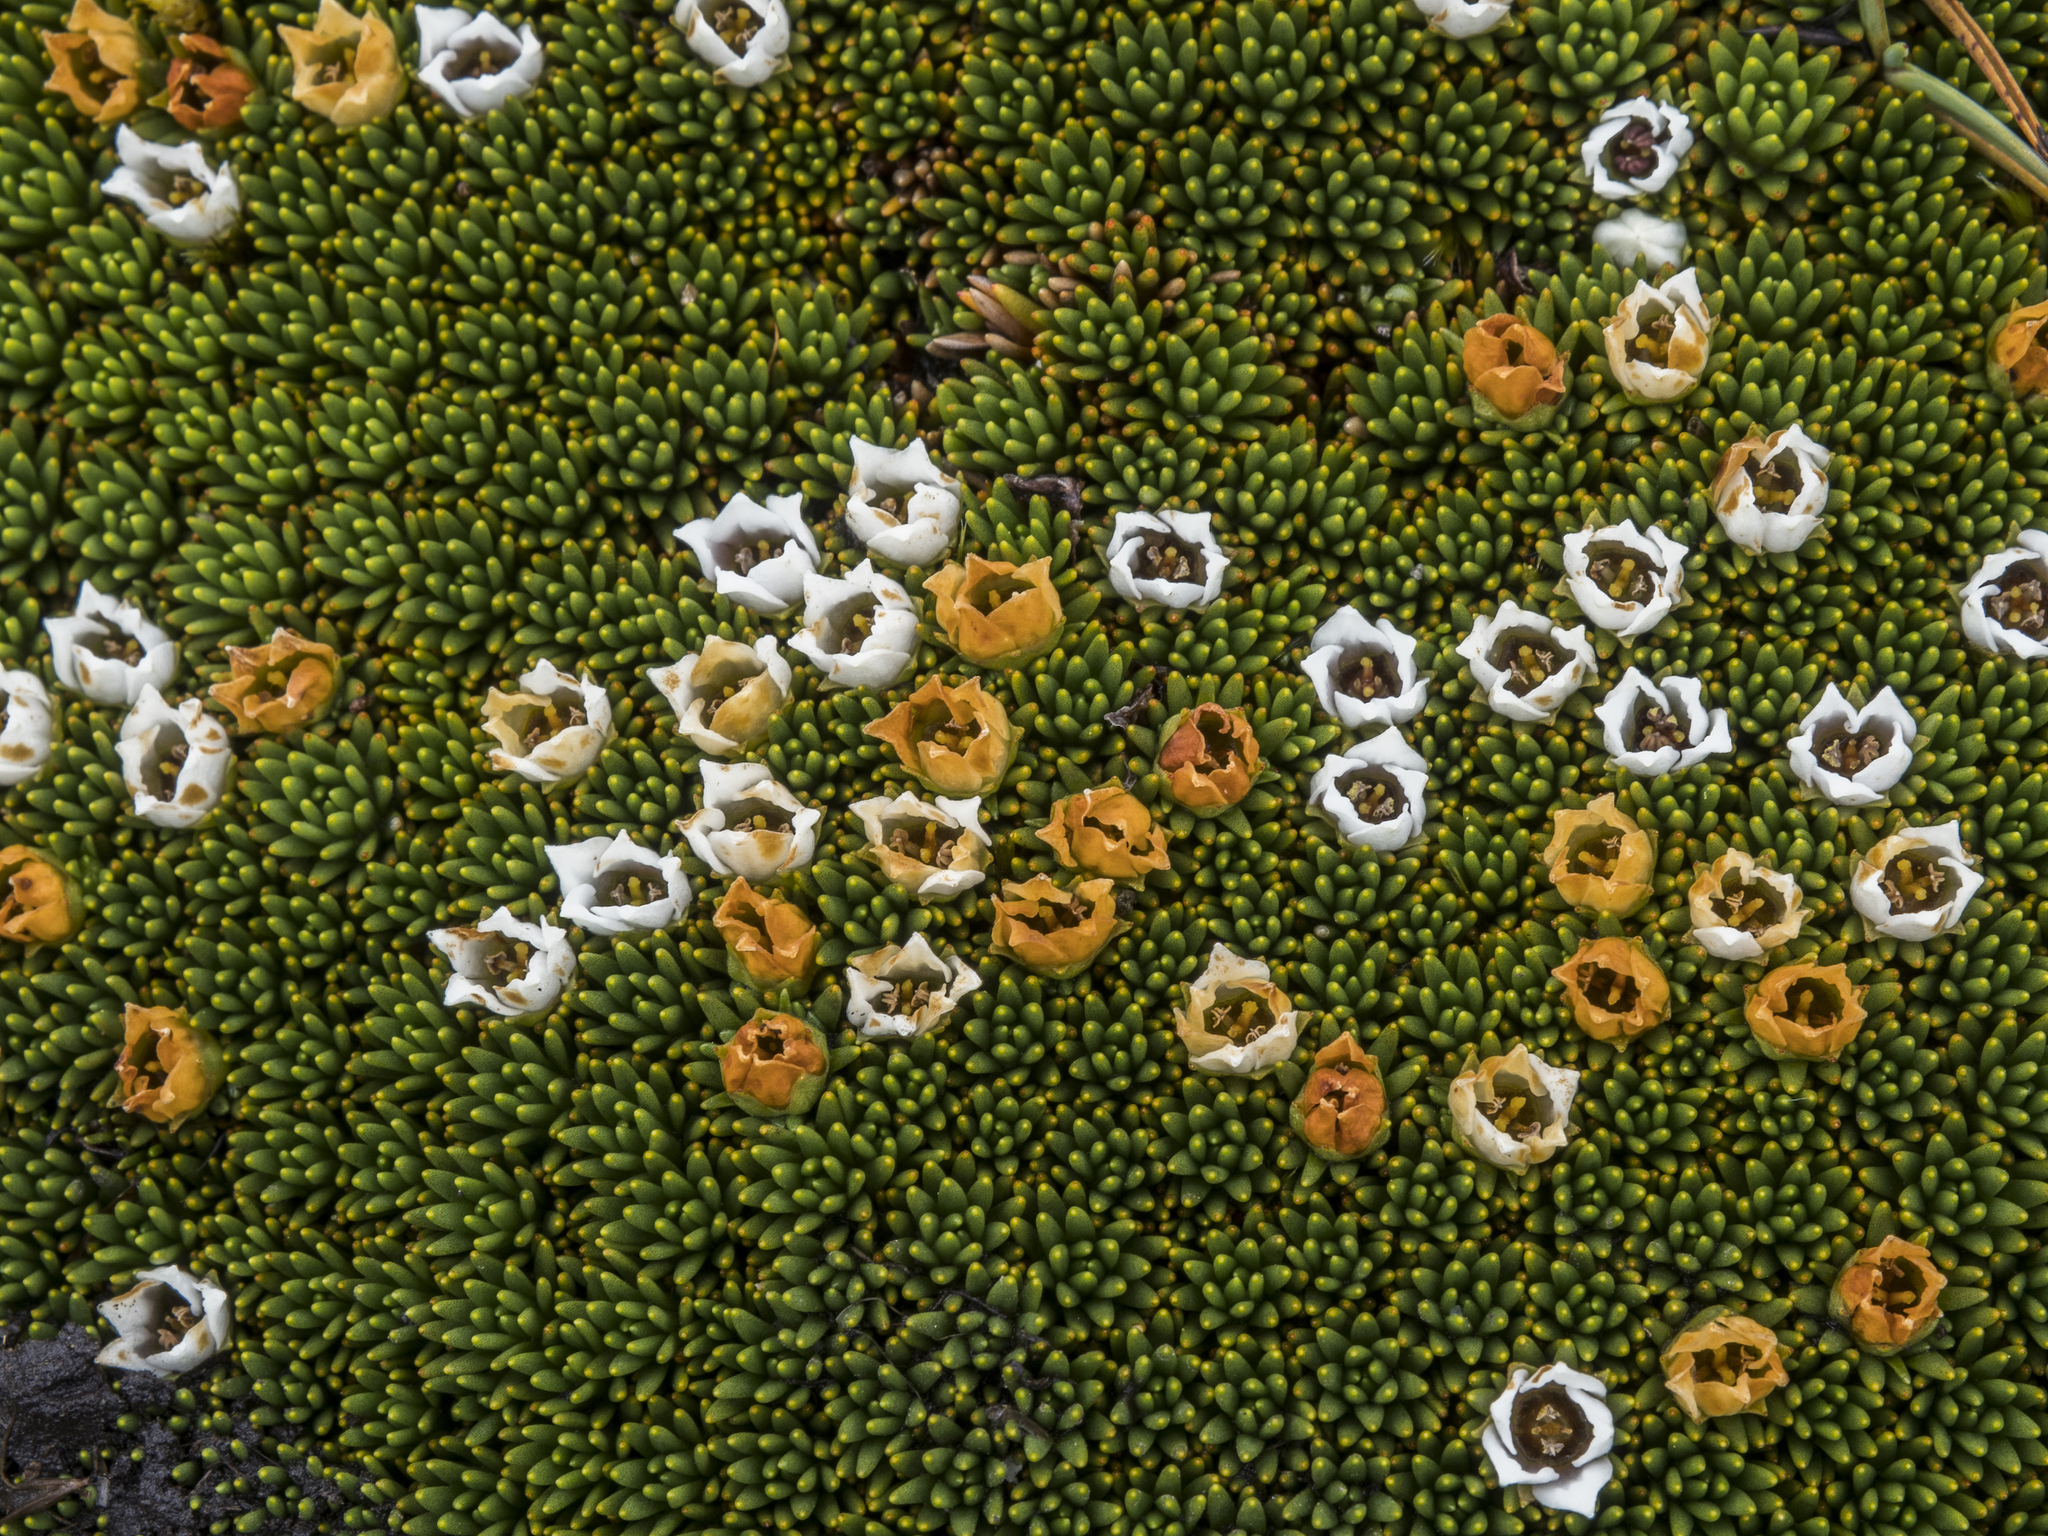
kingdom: Plantae
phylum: Tracheophyta
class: Magnoliopsida
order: Asterales
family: Stylidiaceae
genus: Donatia
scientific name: Donatia novae-zelandiae
